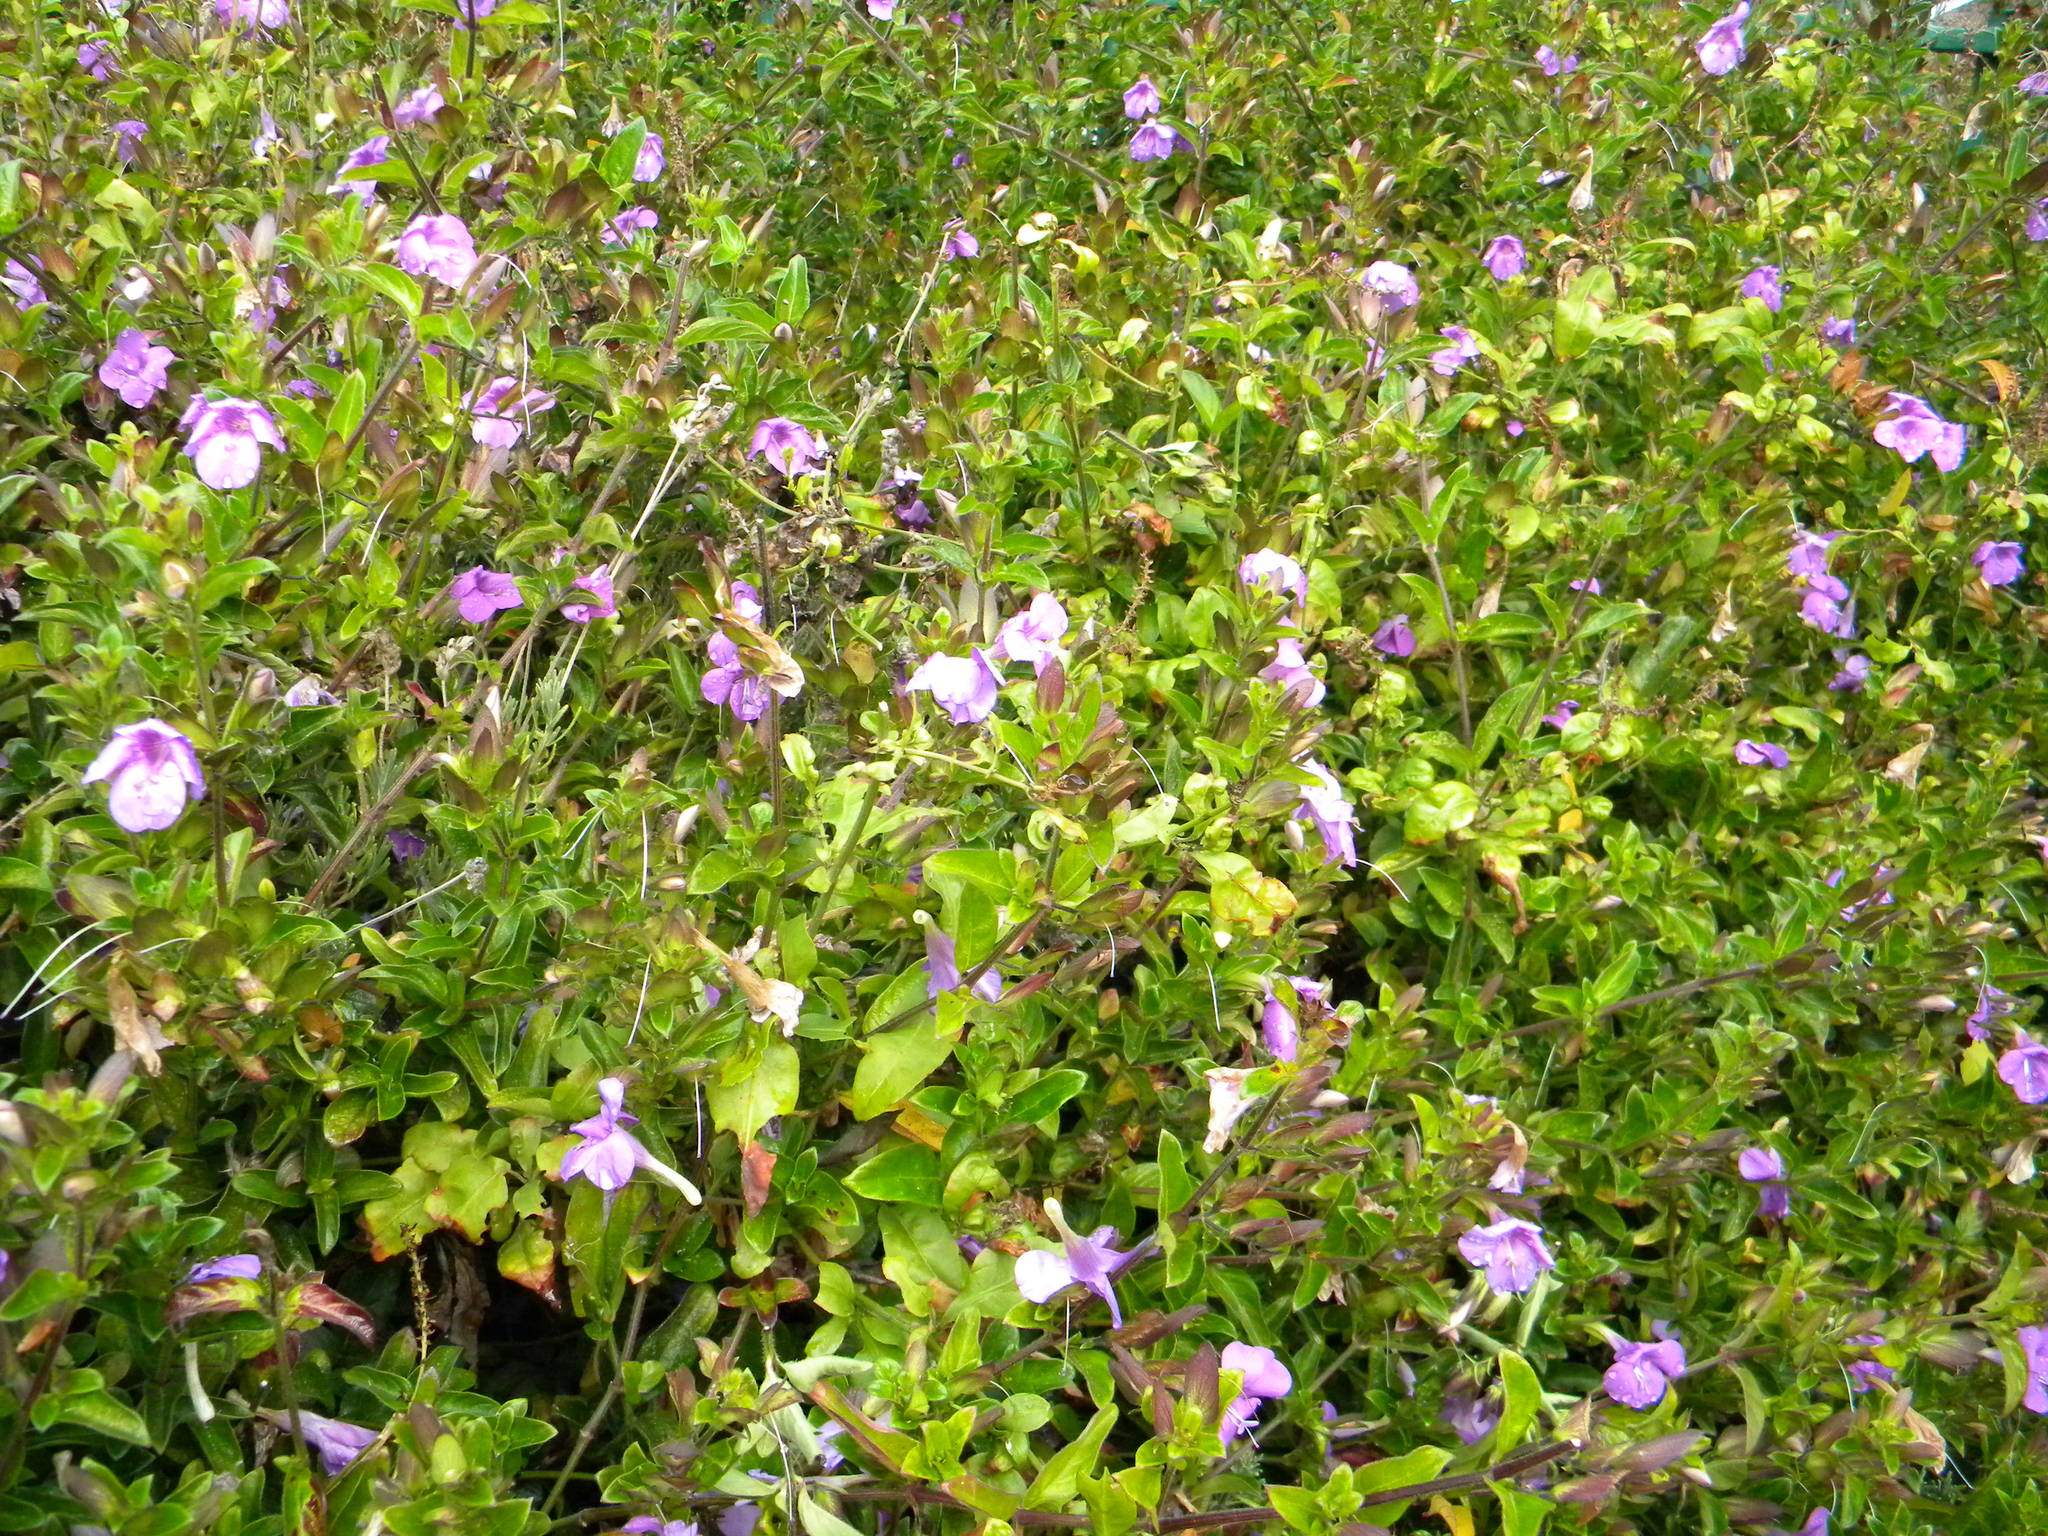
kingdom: Plantae
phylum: Tracheophyta
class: Magnoliopsida
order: Lamiales
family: Acanthaceae
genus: Barleria
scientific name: Barleria obtusa
